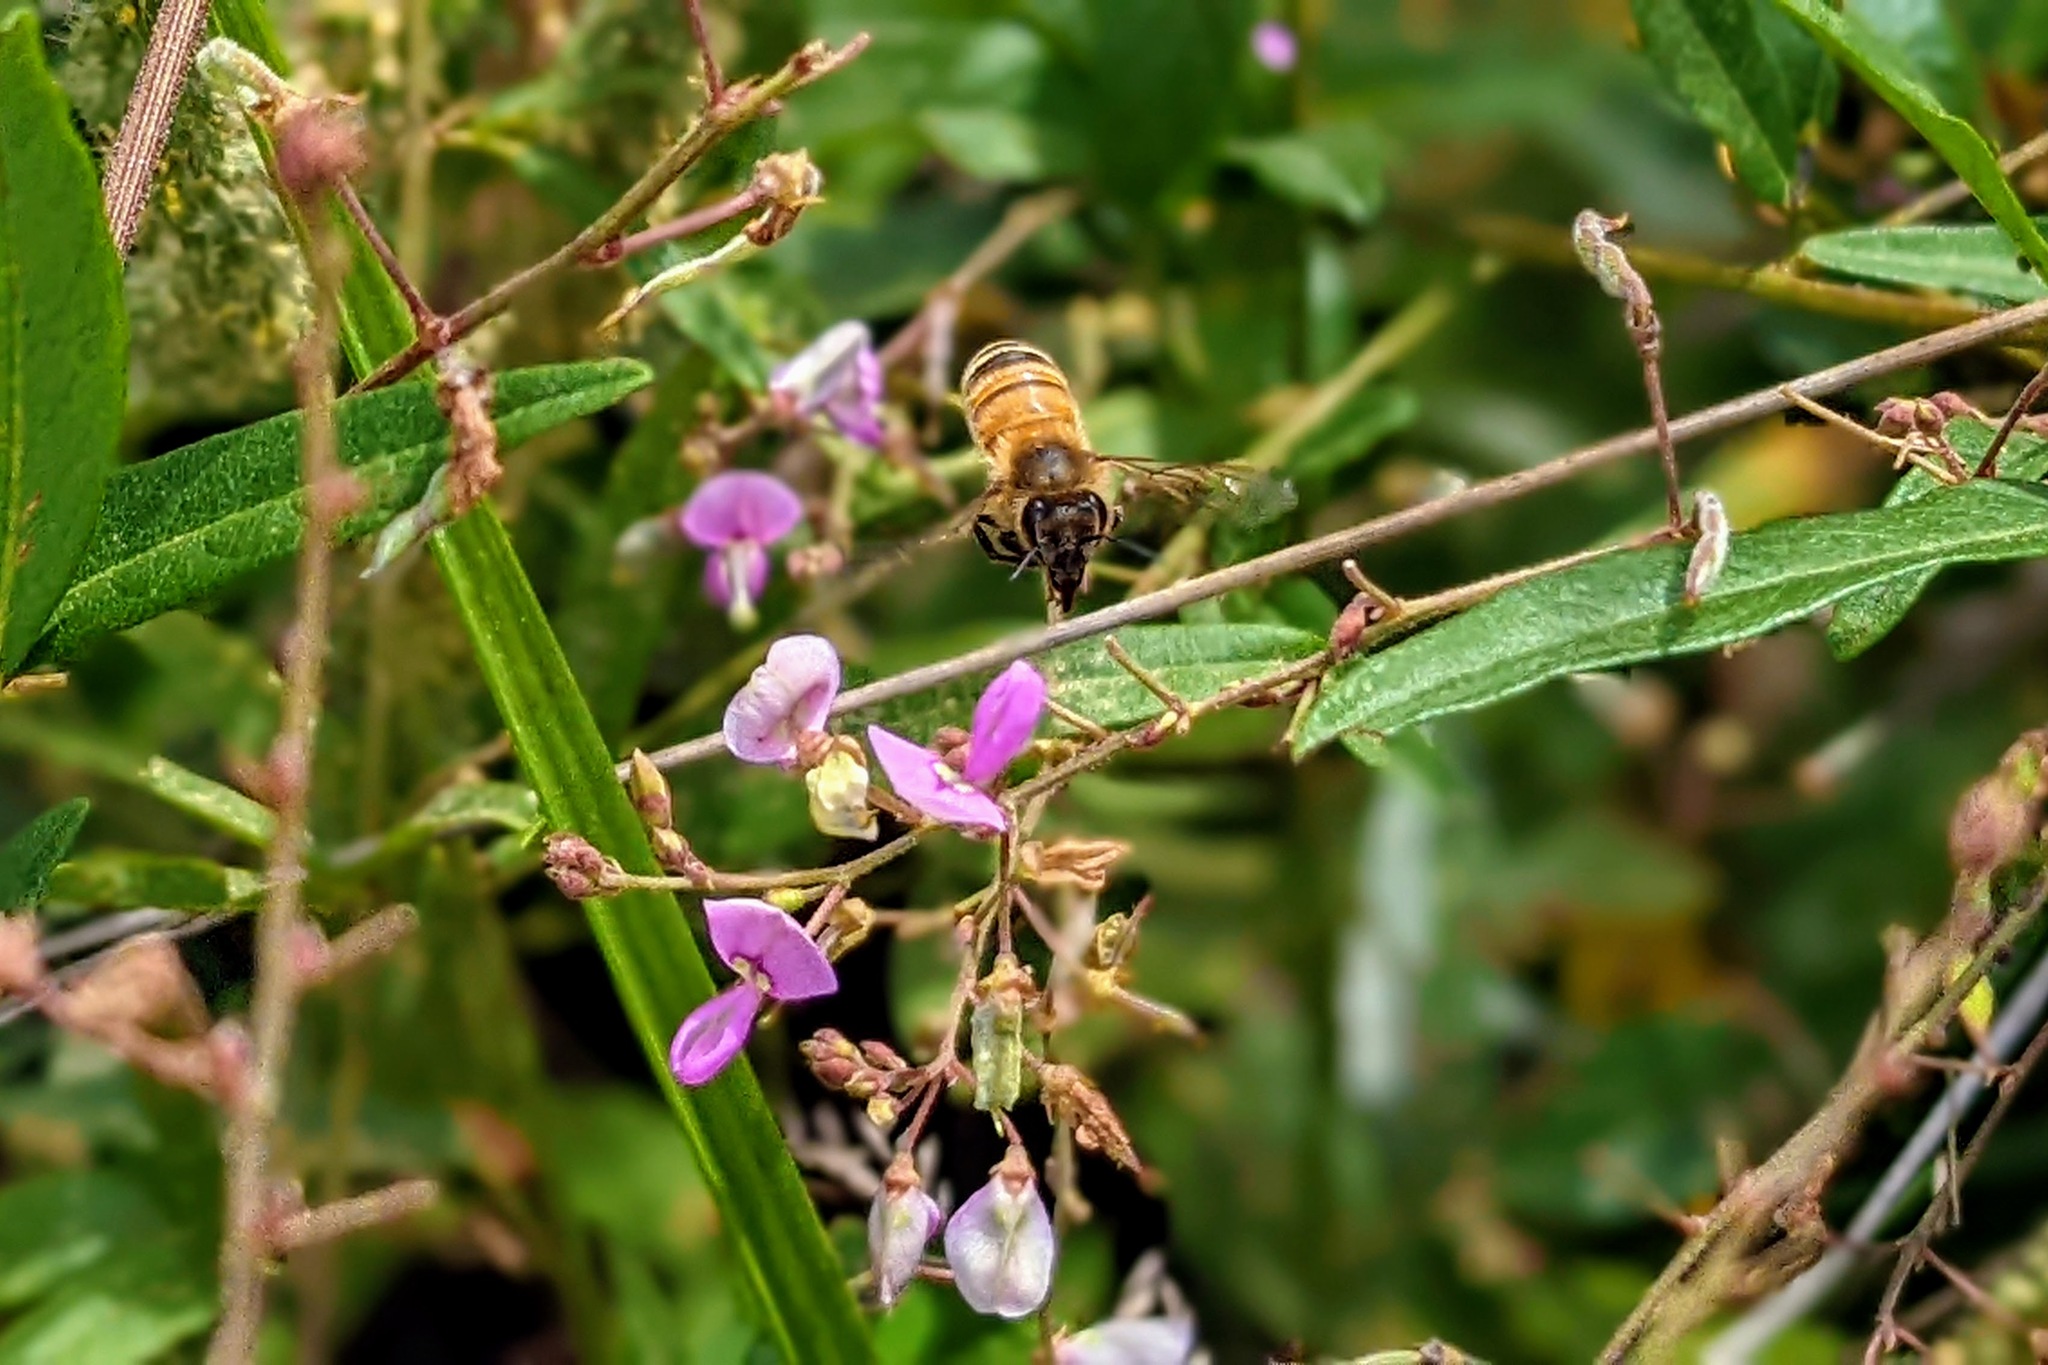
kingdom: Plantae
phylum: Tracheophyta
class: Magnoliopsida
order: Fabales
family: Fabaceae
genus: Desmodium
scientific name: Desmodium
